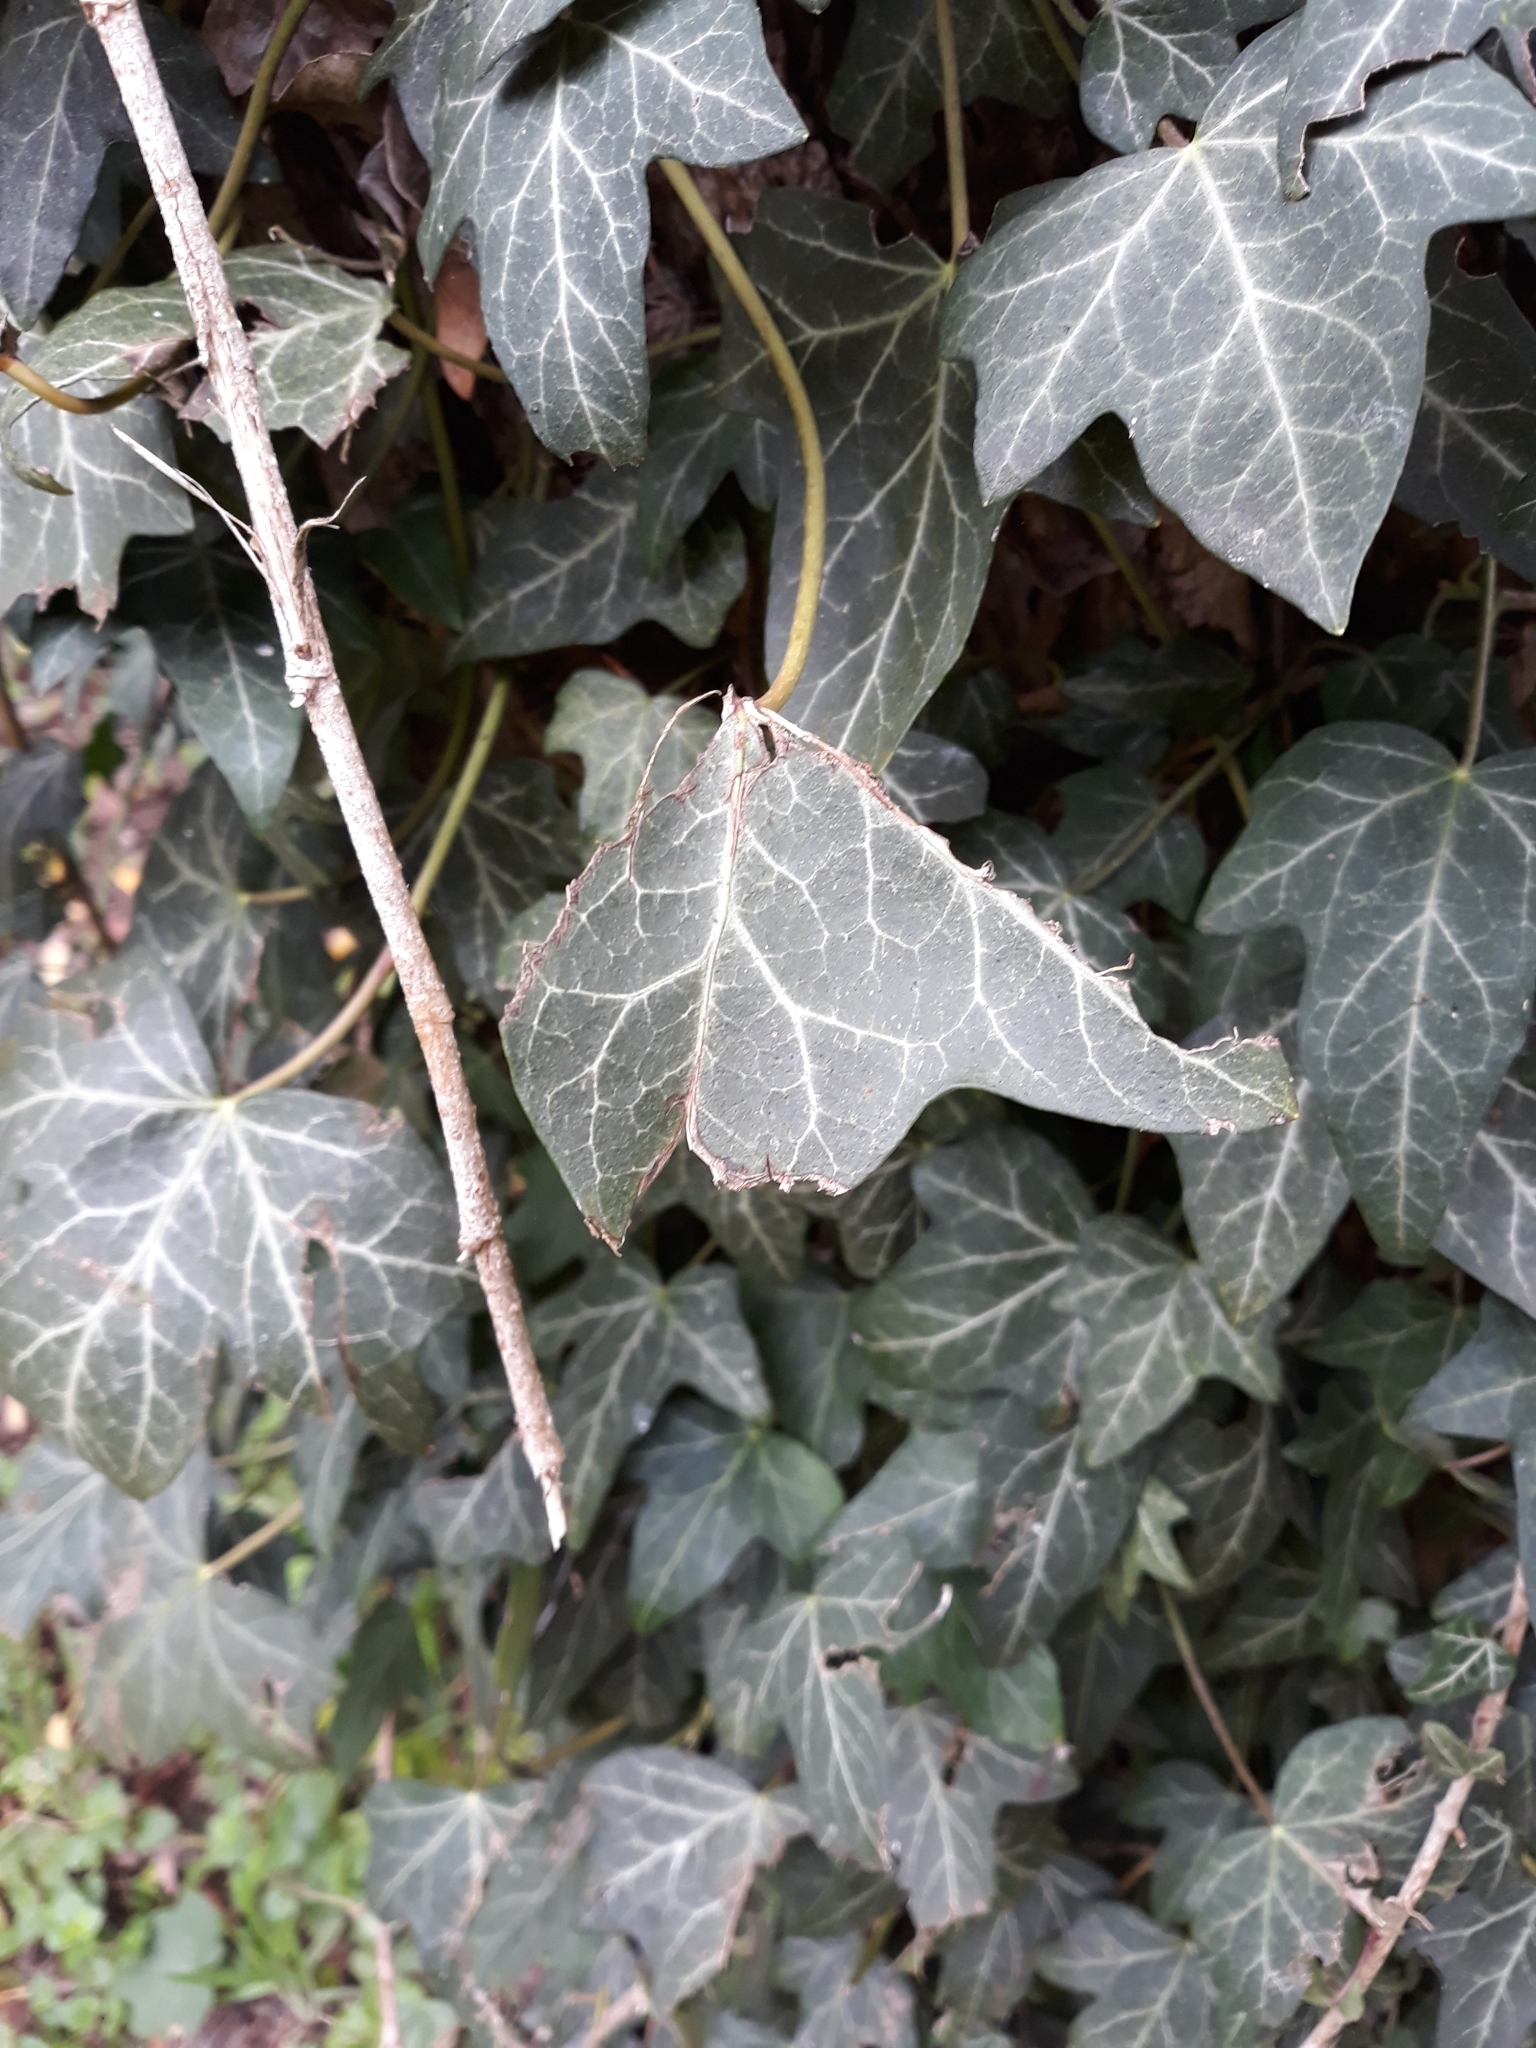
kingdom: Plantae
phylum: Tracheophyta
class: Magnoliopsida
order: Apiales
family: Araliaceae
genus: Hedera
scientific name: Hedera helix
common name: Ivy
